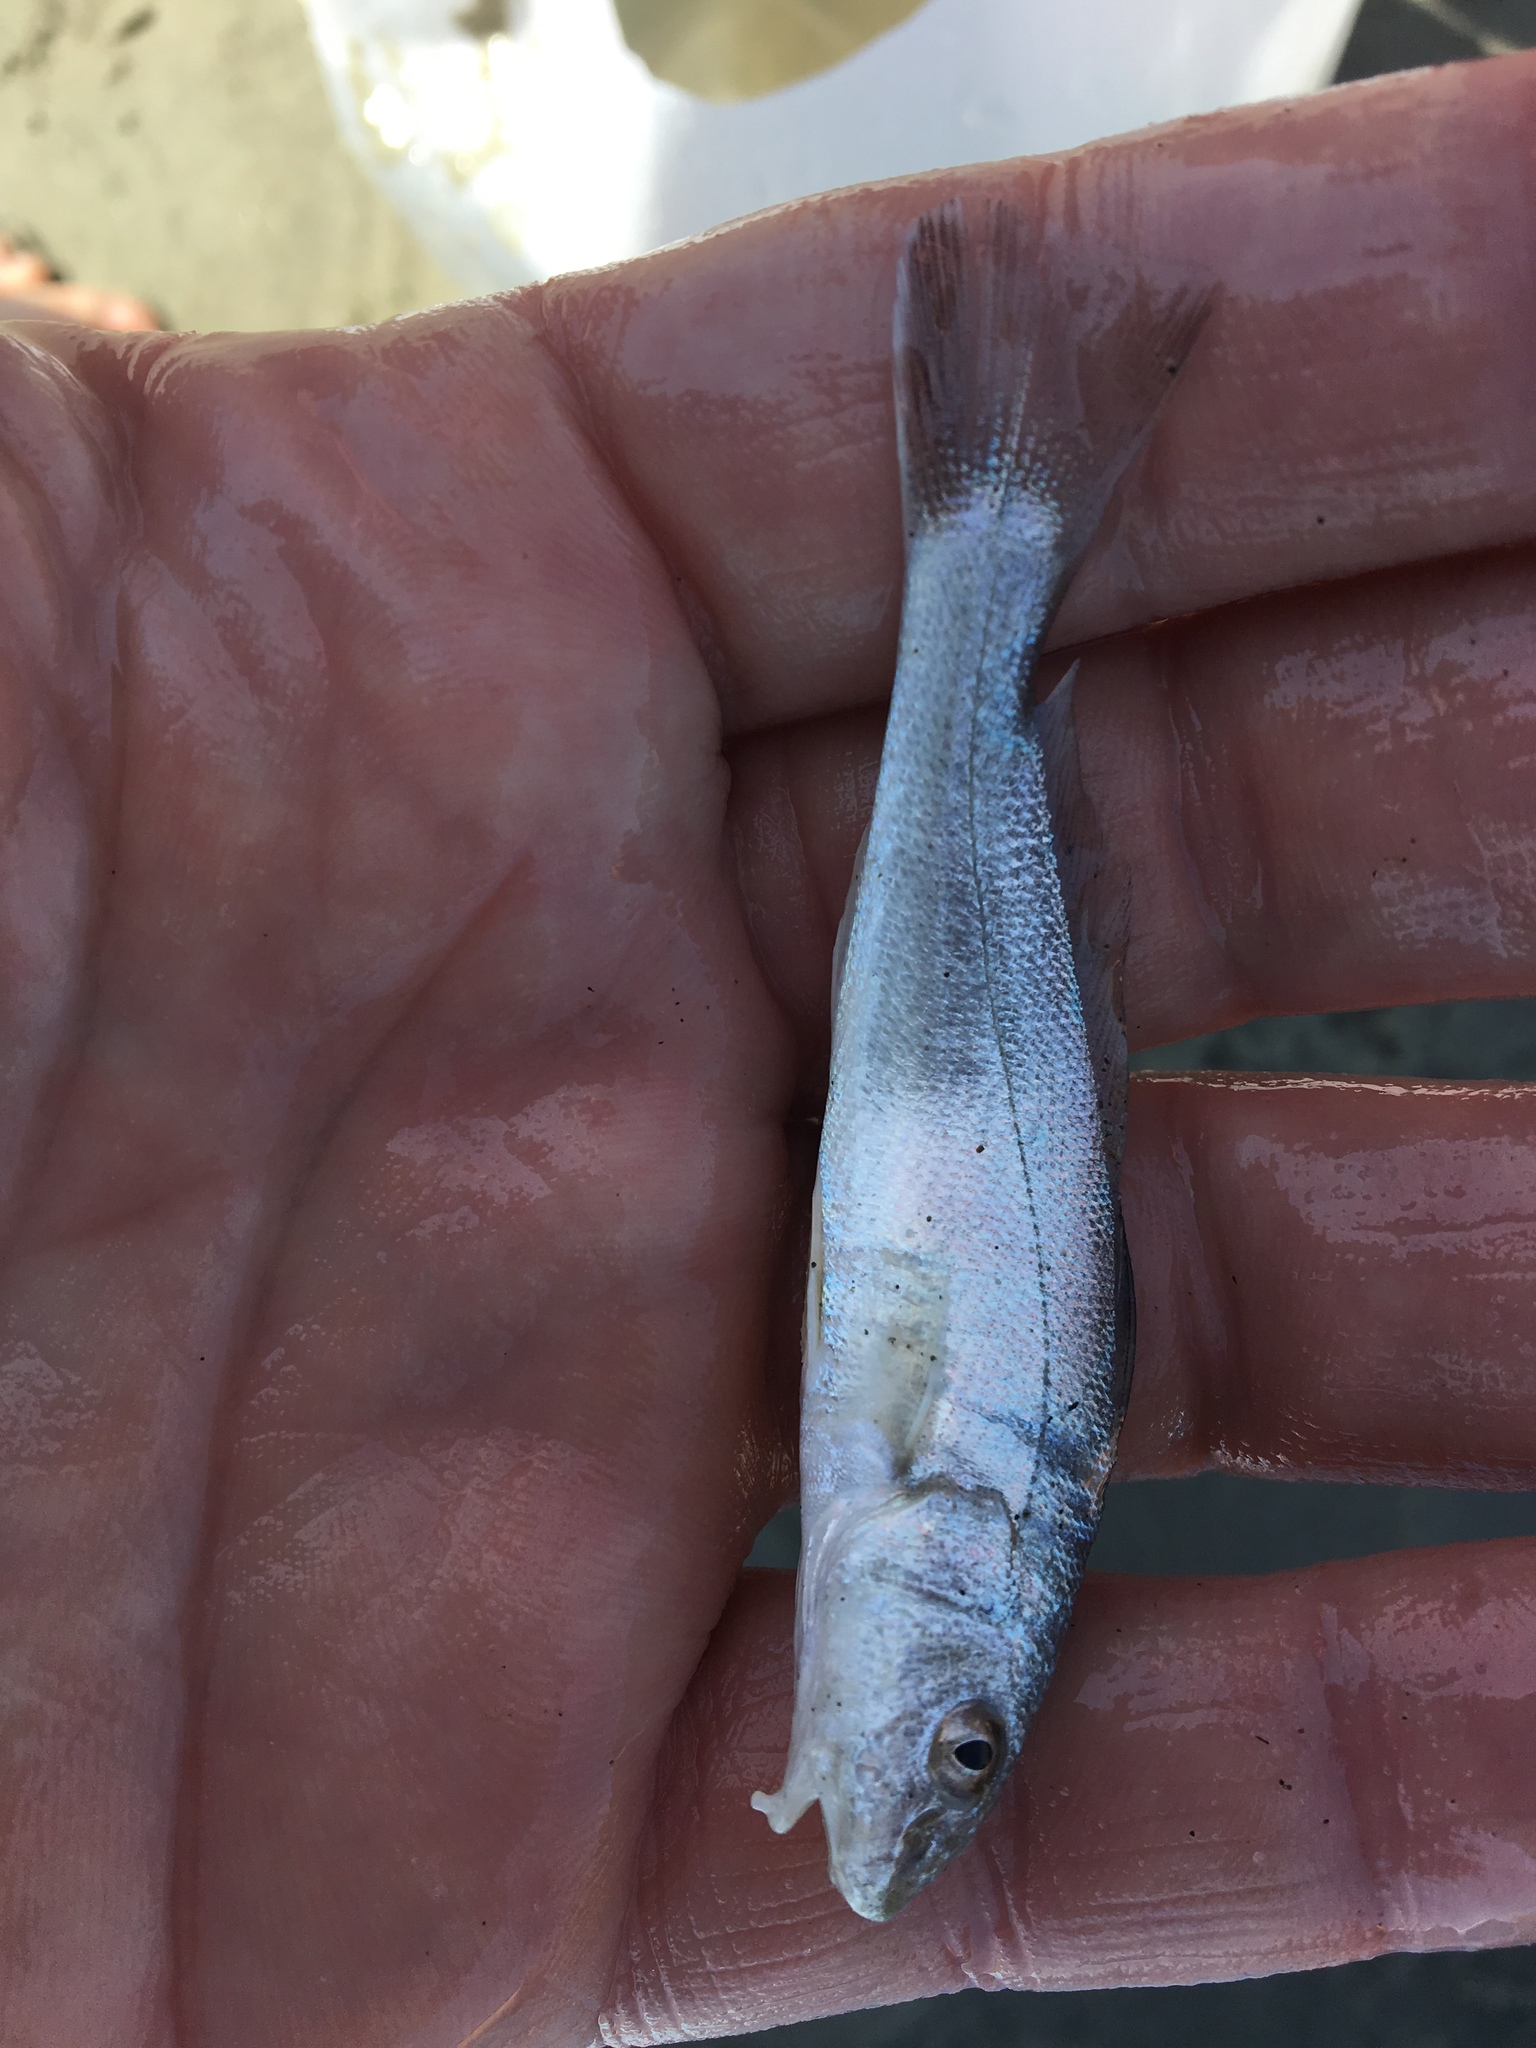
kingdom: Animalia
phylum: Chordata
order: Perciformes
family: Sciaenidae
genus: Menticirrhus
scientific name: Menticirrhus americanus
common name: Southern kingfish
